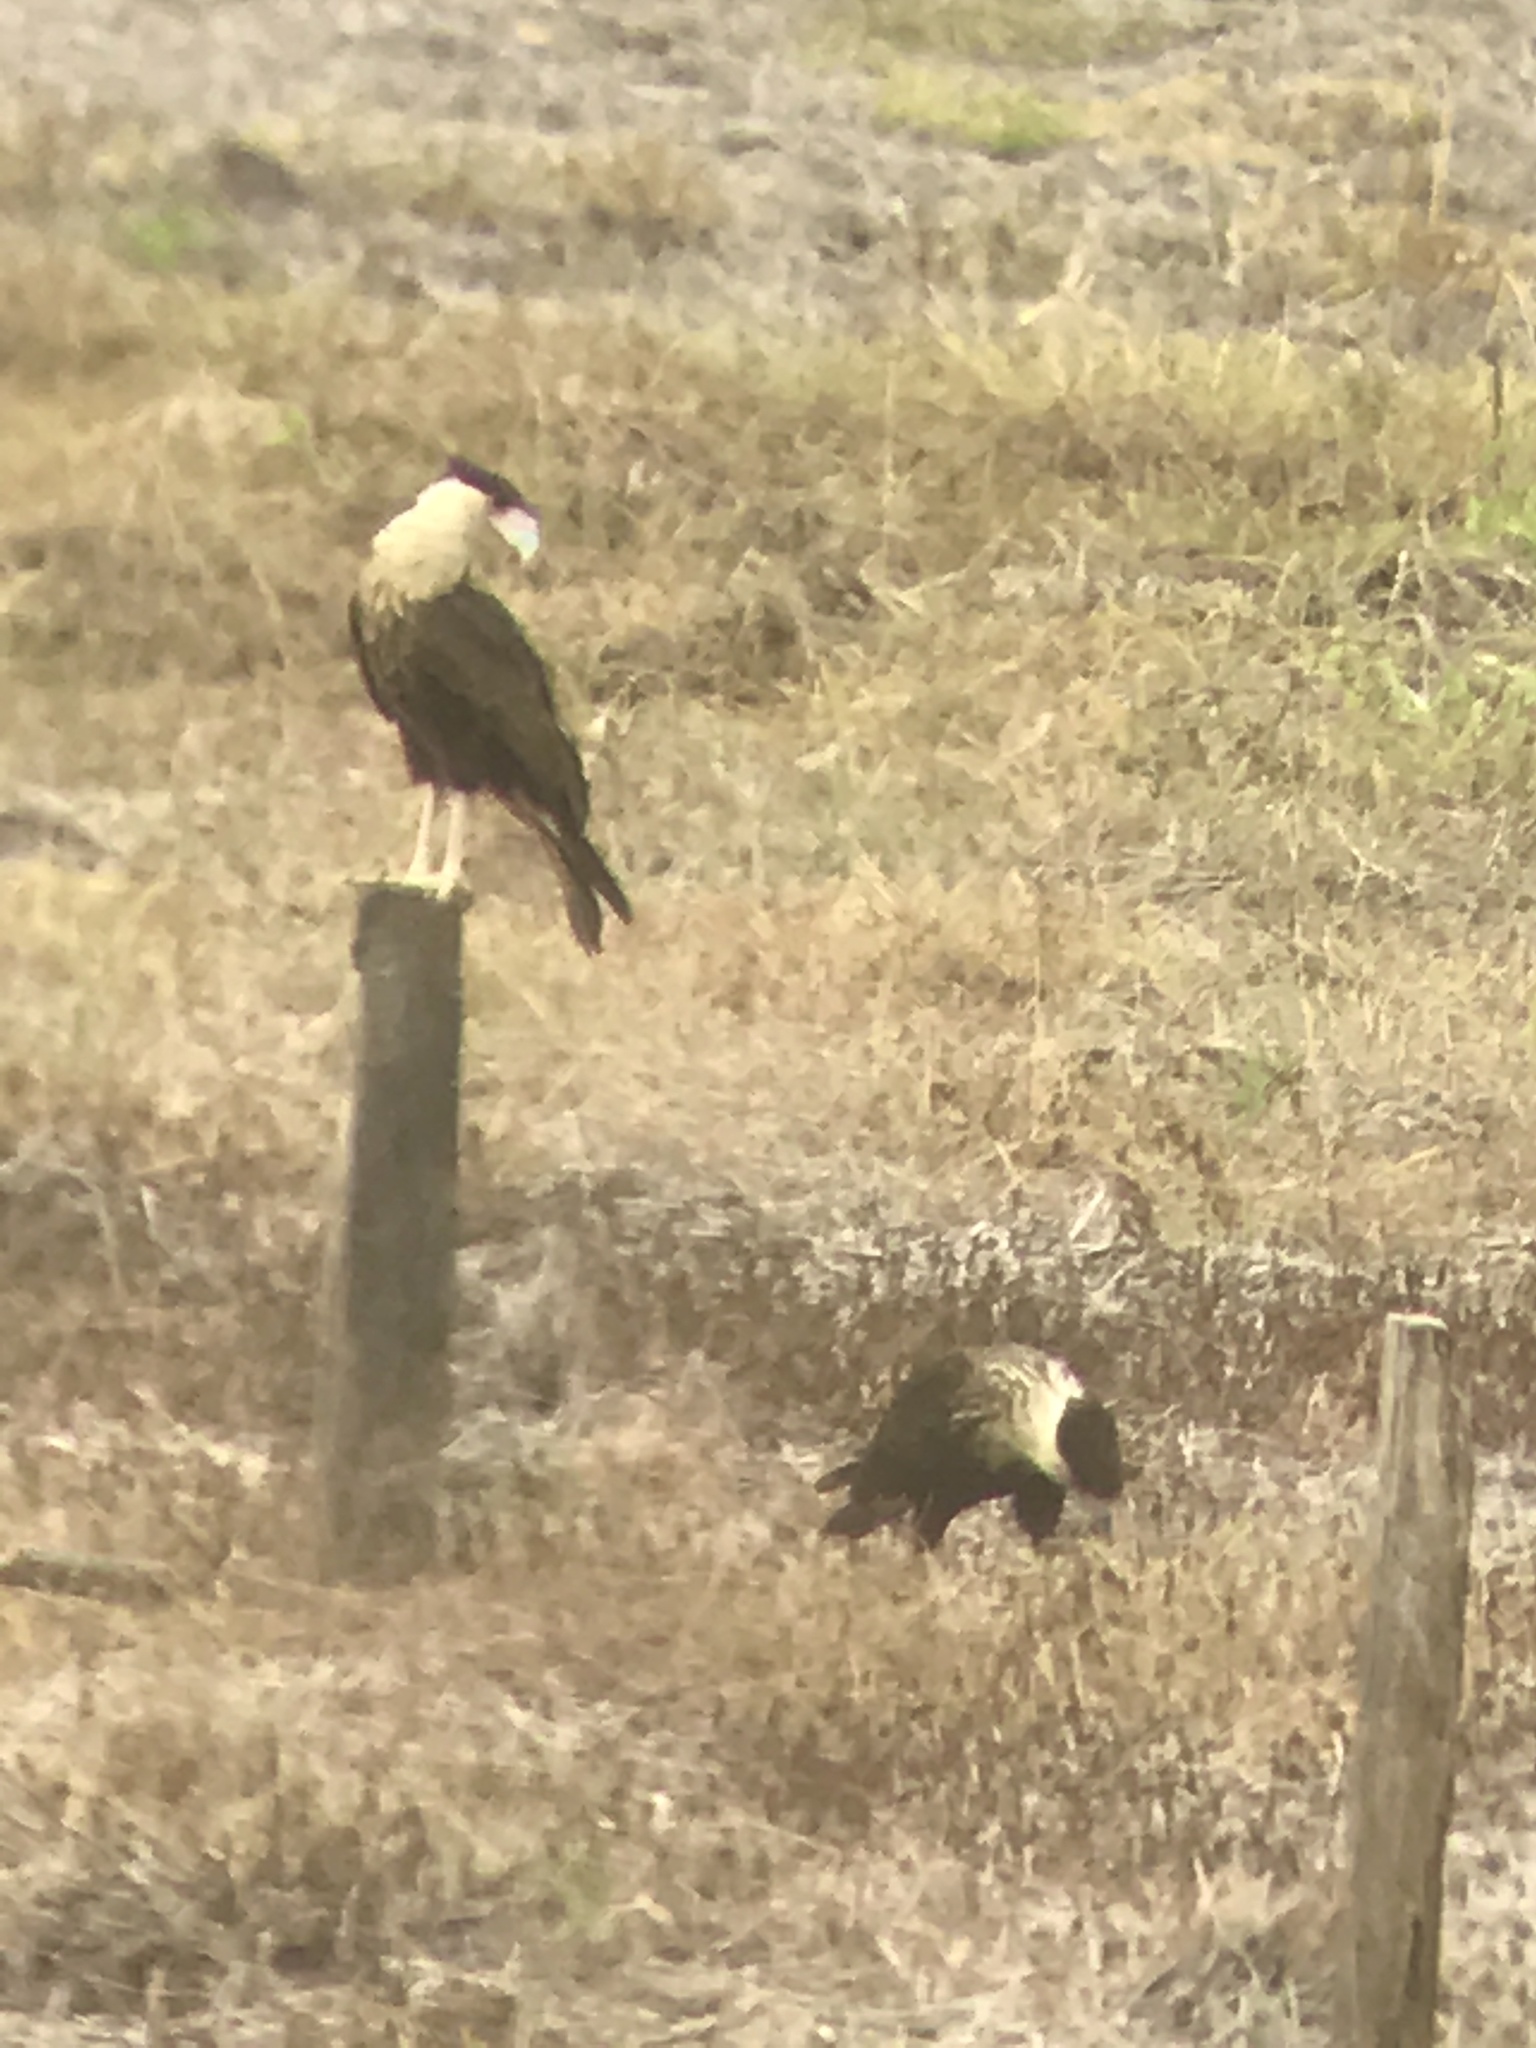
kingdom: Animalia
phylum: Chordata
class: Aves
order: Falconiformes
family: Falconidae
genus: Caracara
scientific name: Caracara plancus
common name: Southern caracara
